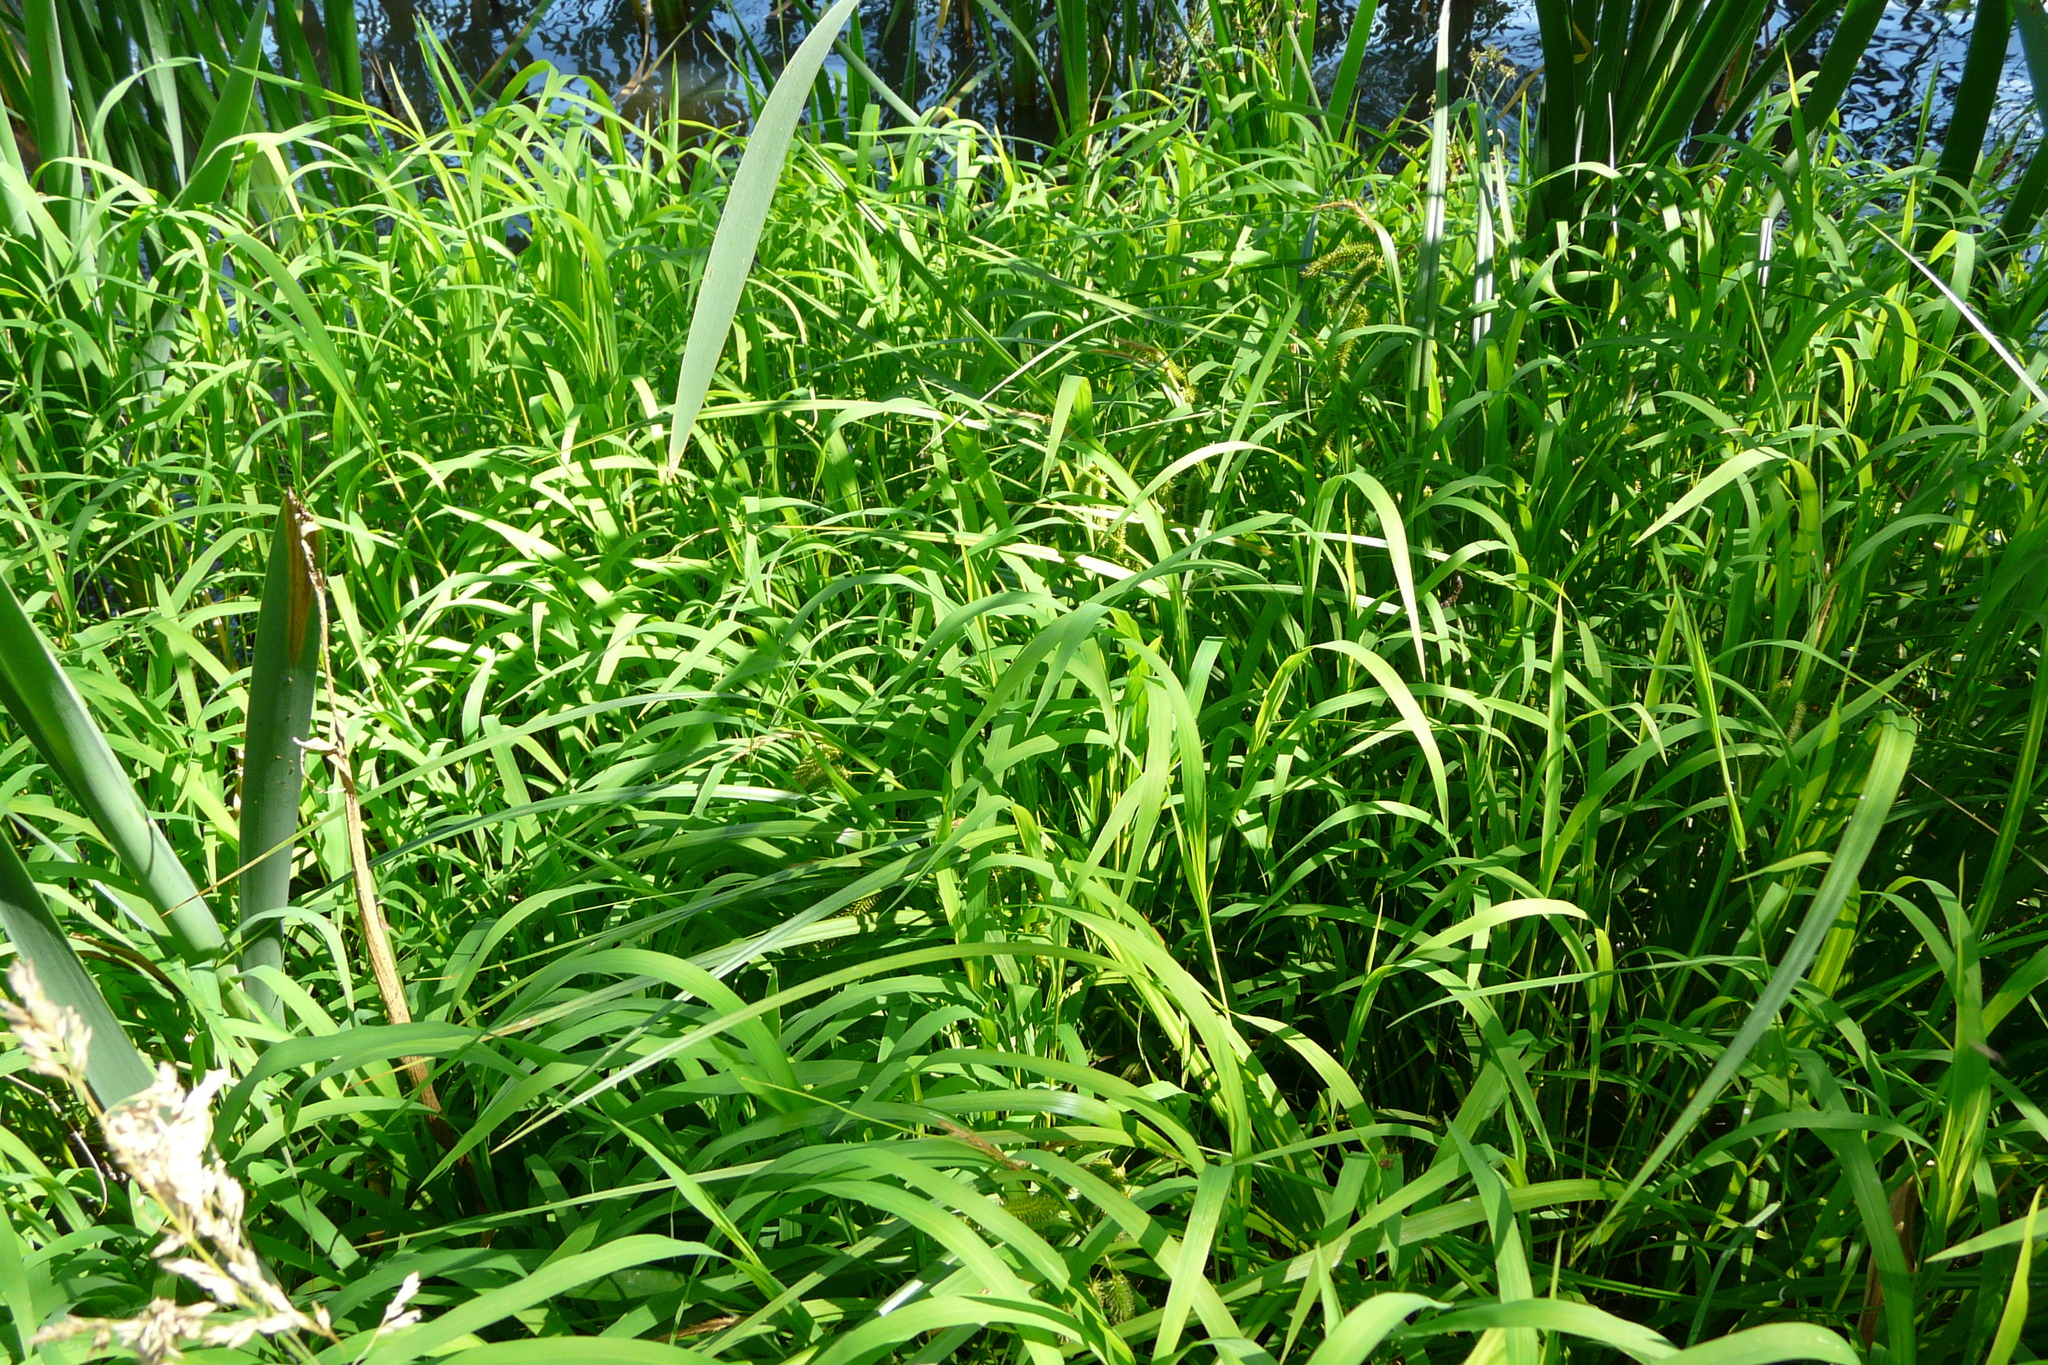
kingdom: Plantae
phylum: Tracheophyta
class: Liliopsida
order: Poales
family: Poaceae
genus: Leersia
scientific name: Leersia oryzoides
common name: Cut-grass
